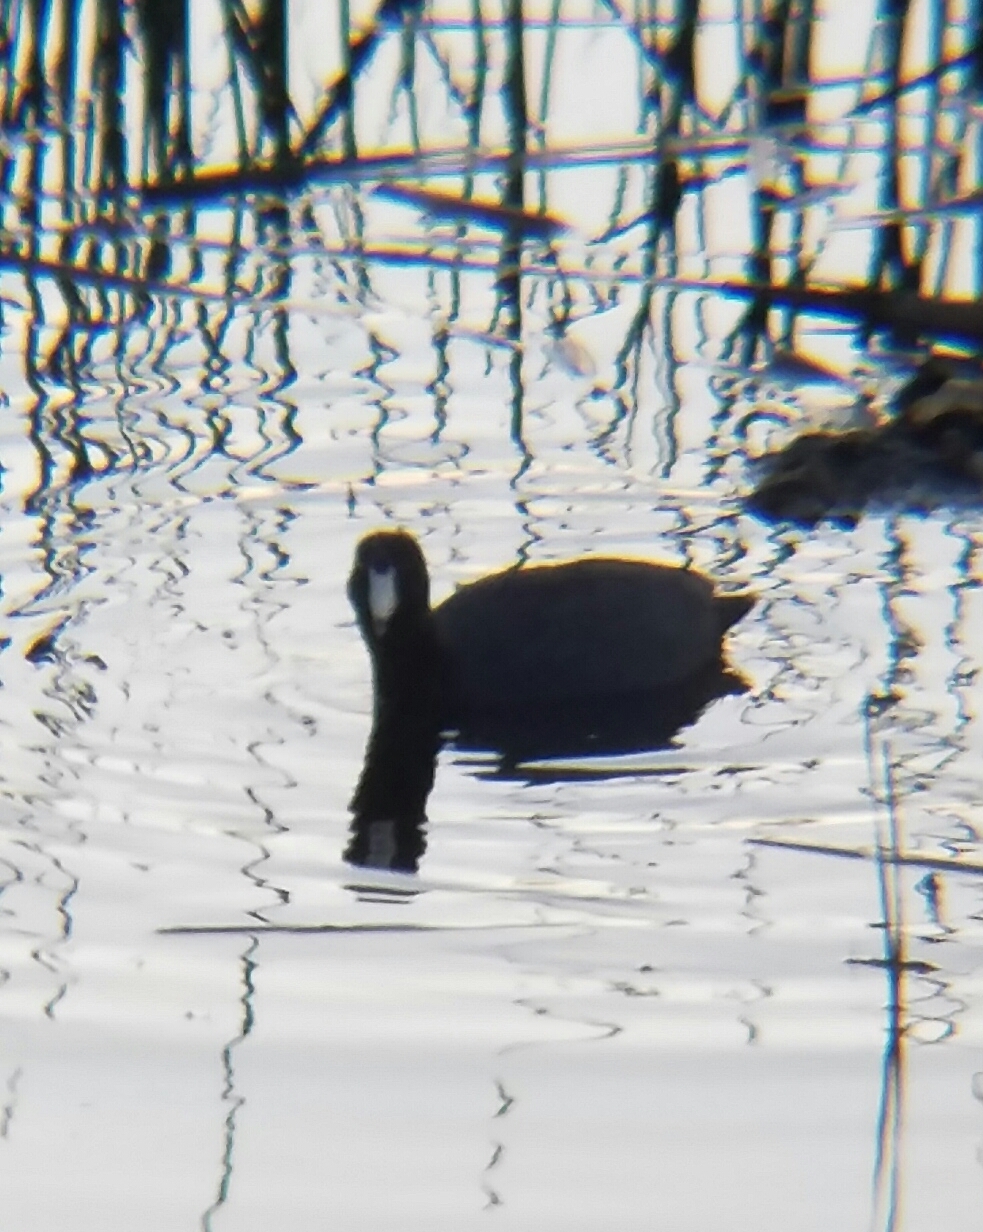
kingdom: Animalia
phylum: Chordata
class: Aves
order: Gruiformes
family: Rallidae
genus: Fulica
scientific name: Fulica americana
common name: American coot
